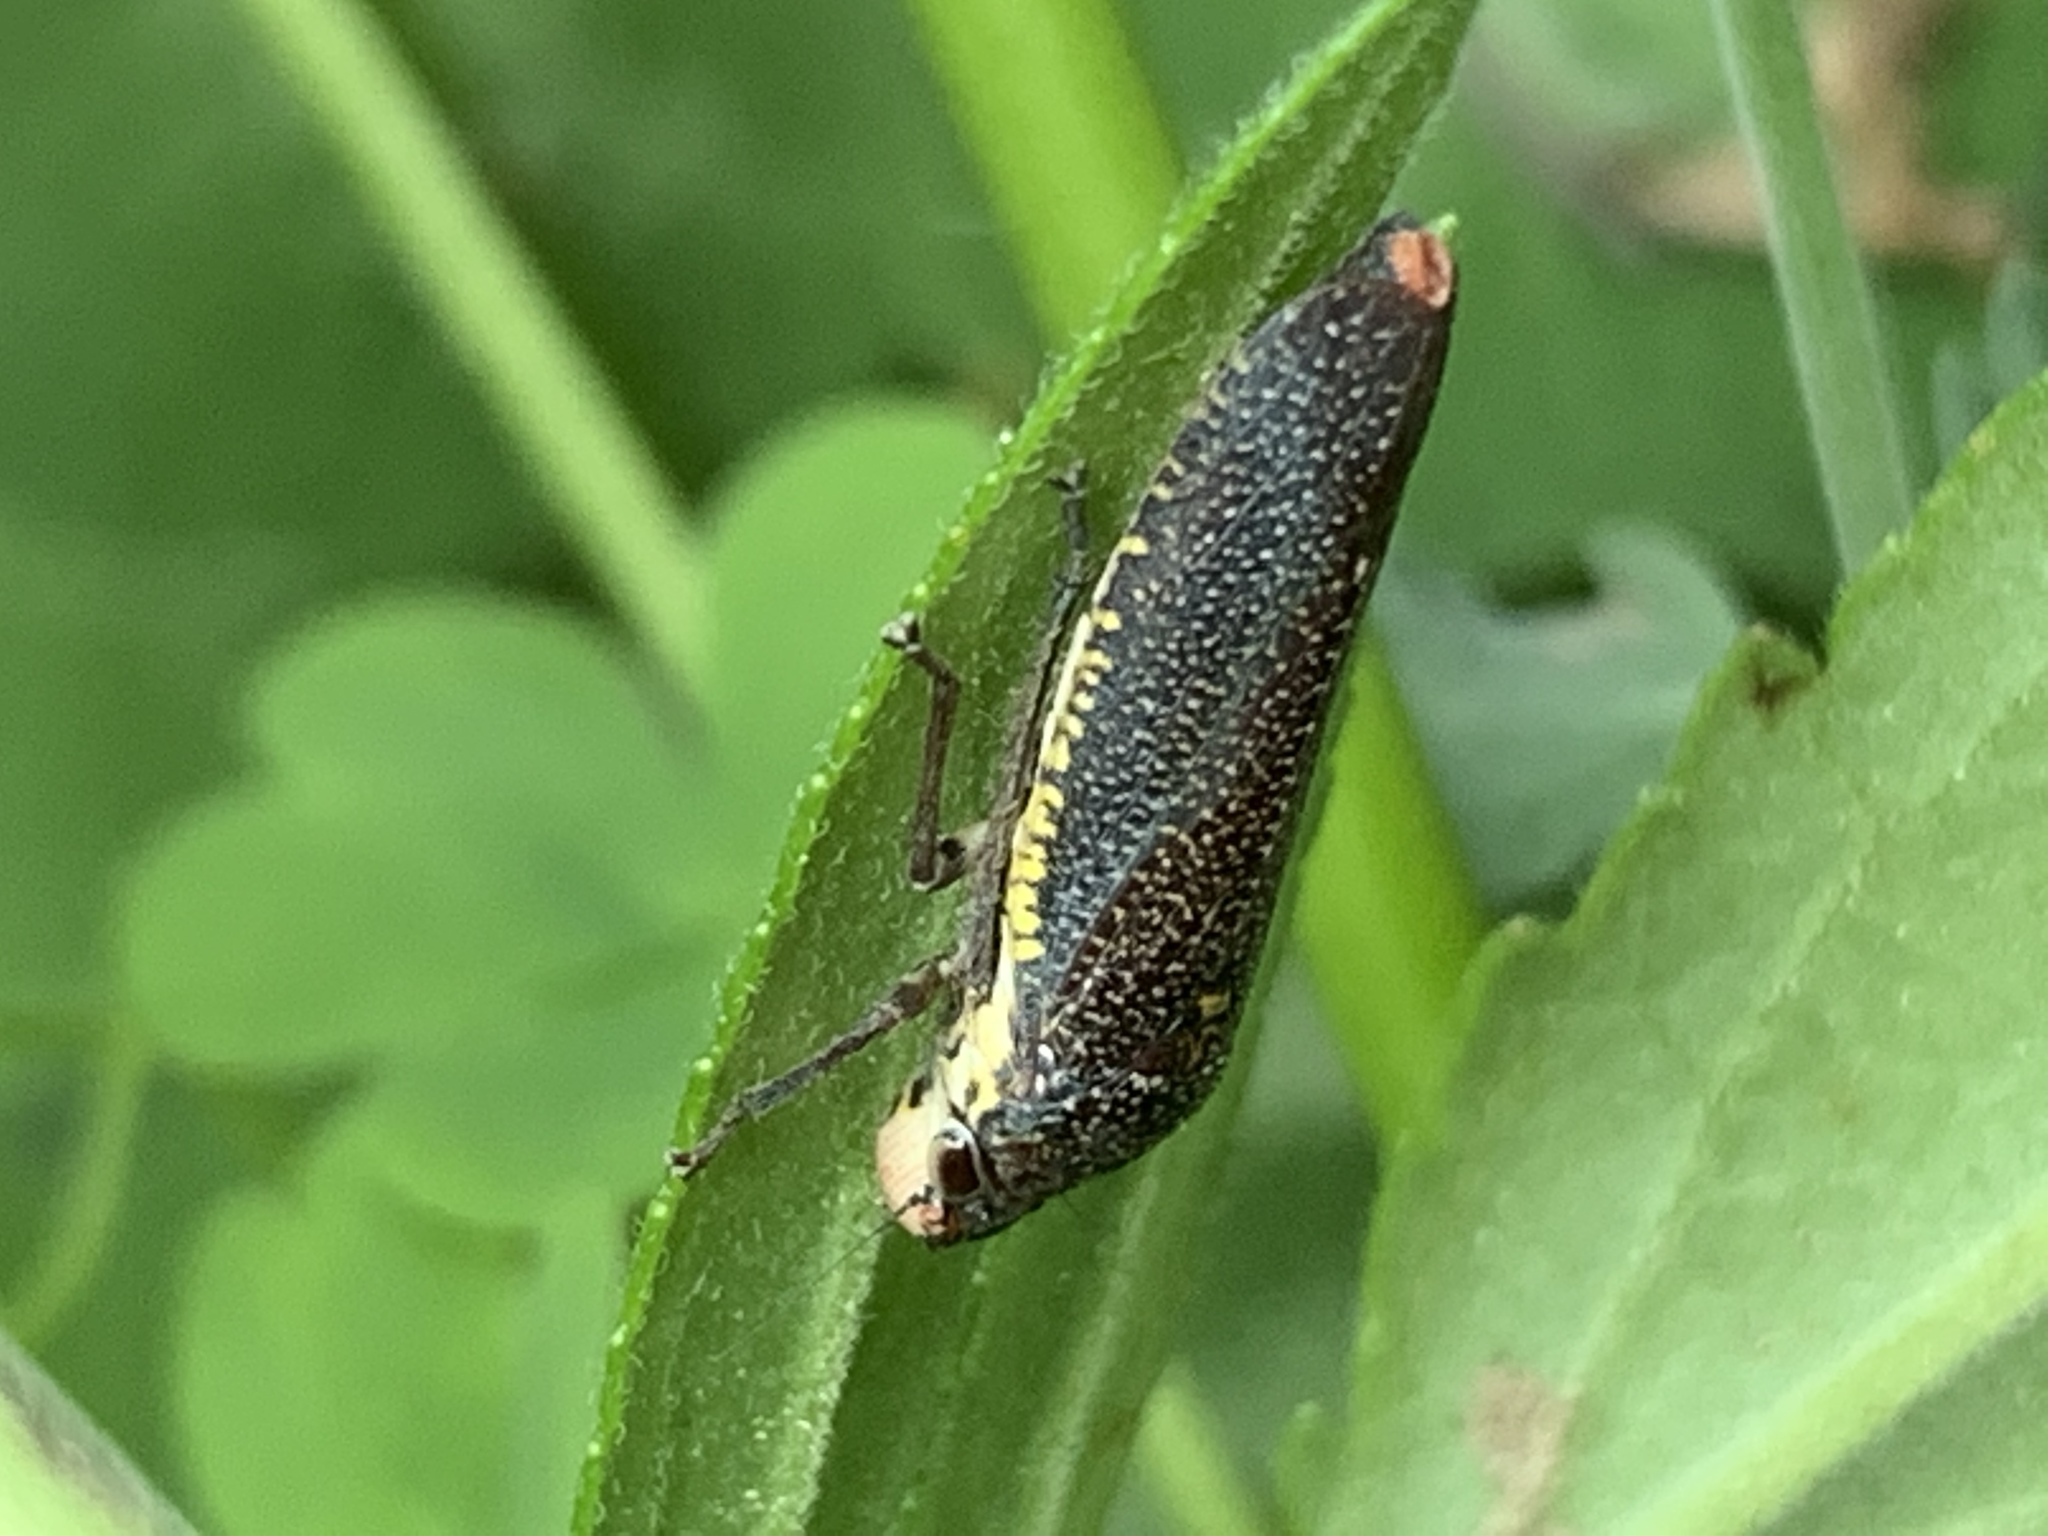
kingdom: Animalia
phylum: Arthropoda
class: Insecta
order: Hemiptera
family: Cicadellidae
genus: Paraulacizes
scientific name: Paraulacizes irrorata
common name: Speckled sharpshooter
